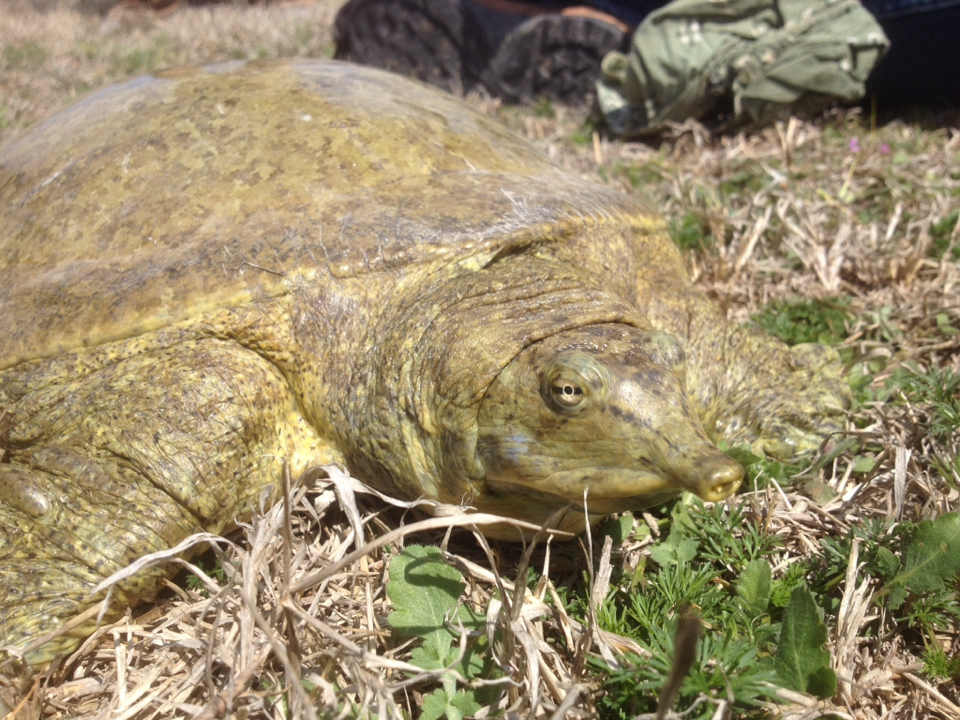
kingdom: Animalia
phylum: Chordata
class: Testudines
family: Trionychidae
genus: Apalone
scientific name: Apalone spinifera
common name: Spiny softshell turtle
